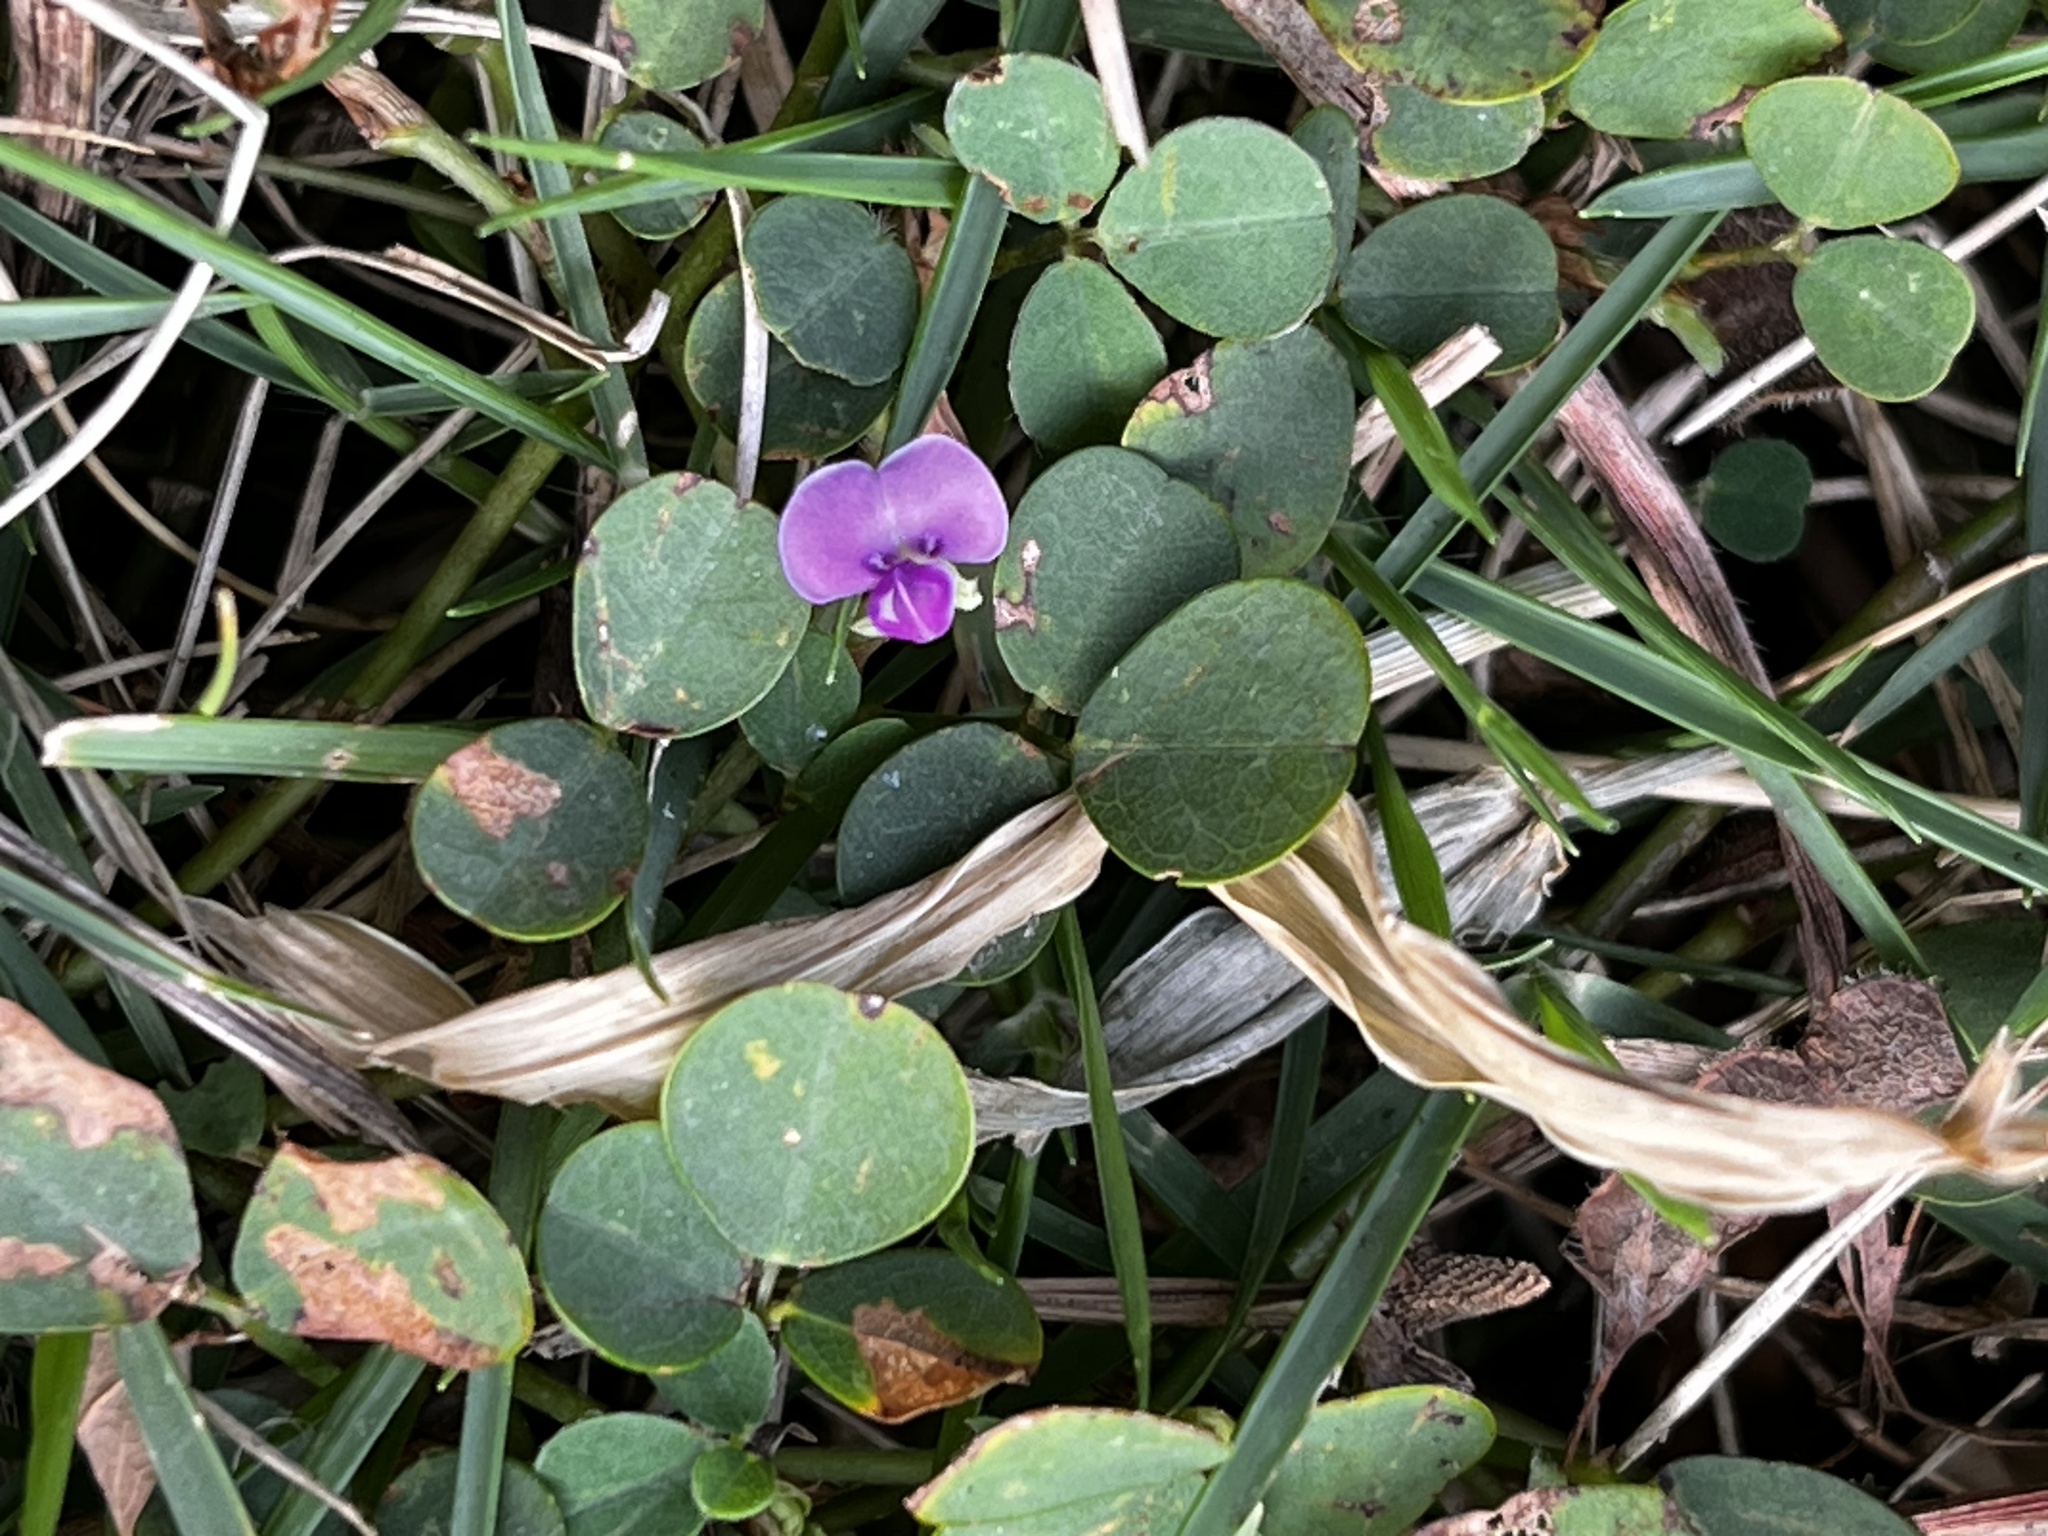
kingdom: Plantae
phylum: Tracheophyta
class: Magnoliopsida
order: Fabales
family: Fabaceae
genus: Grona
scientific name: Grona triflora
